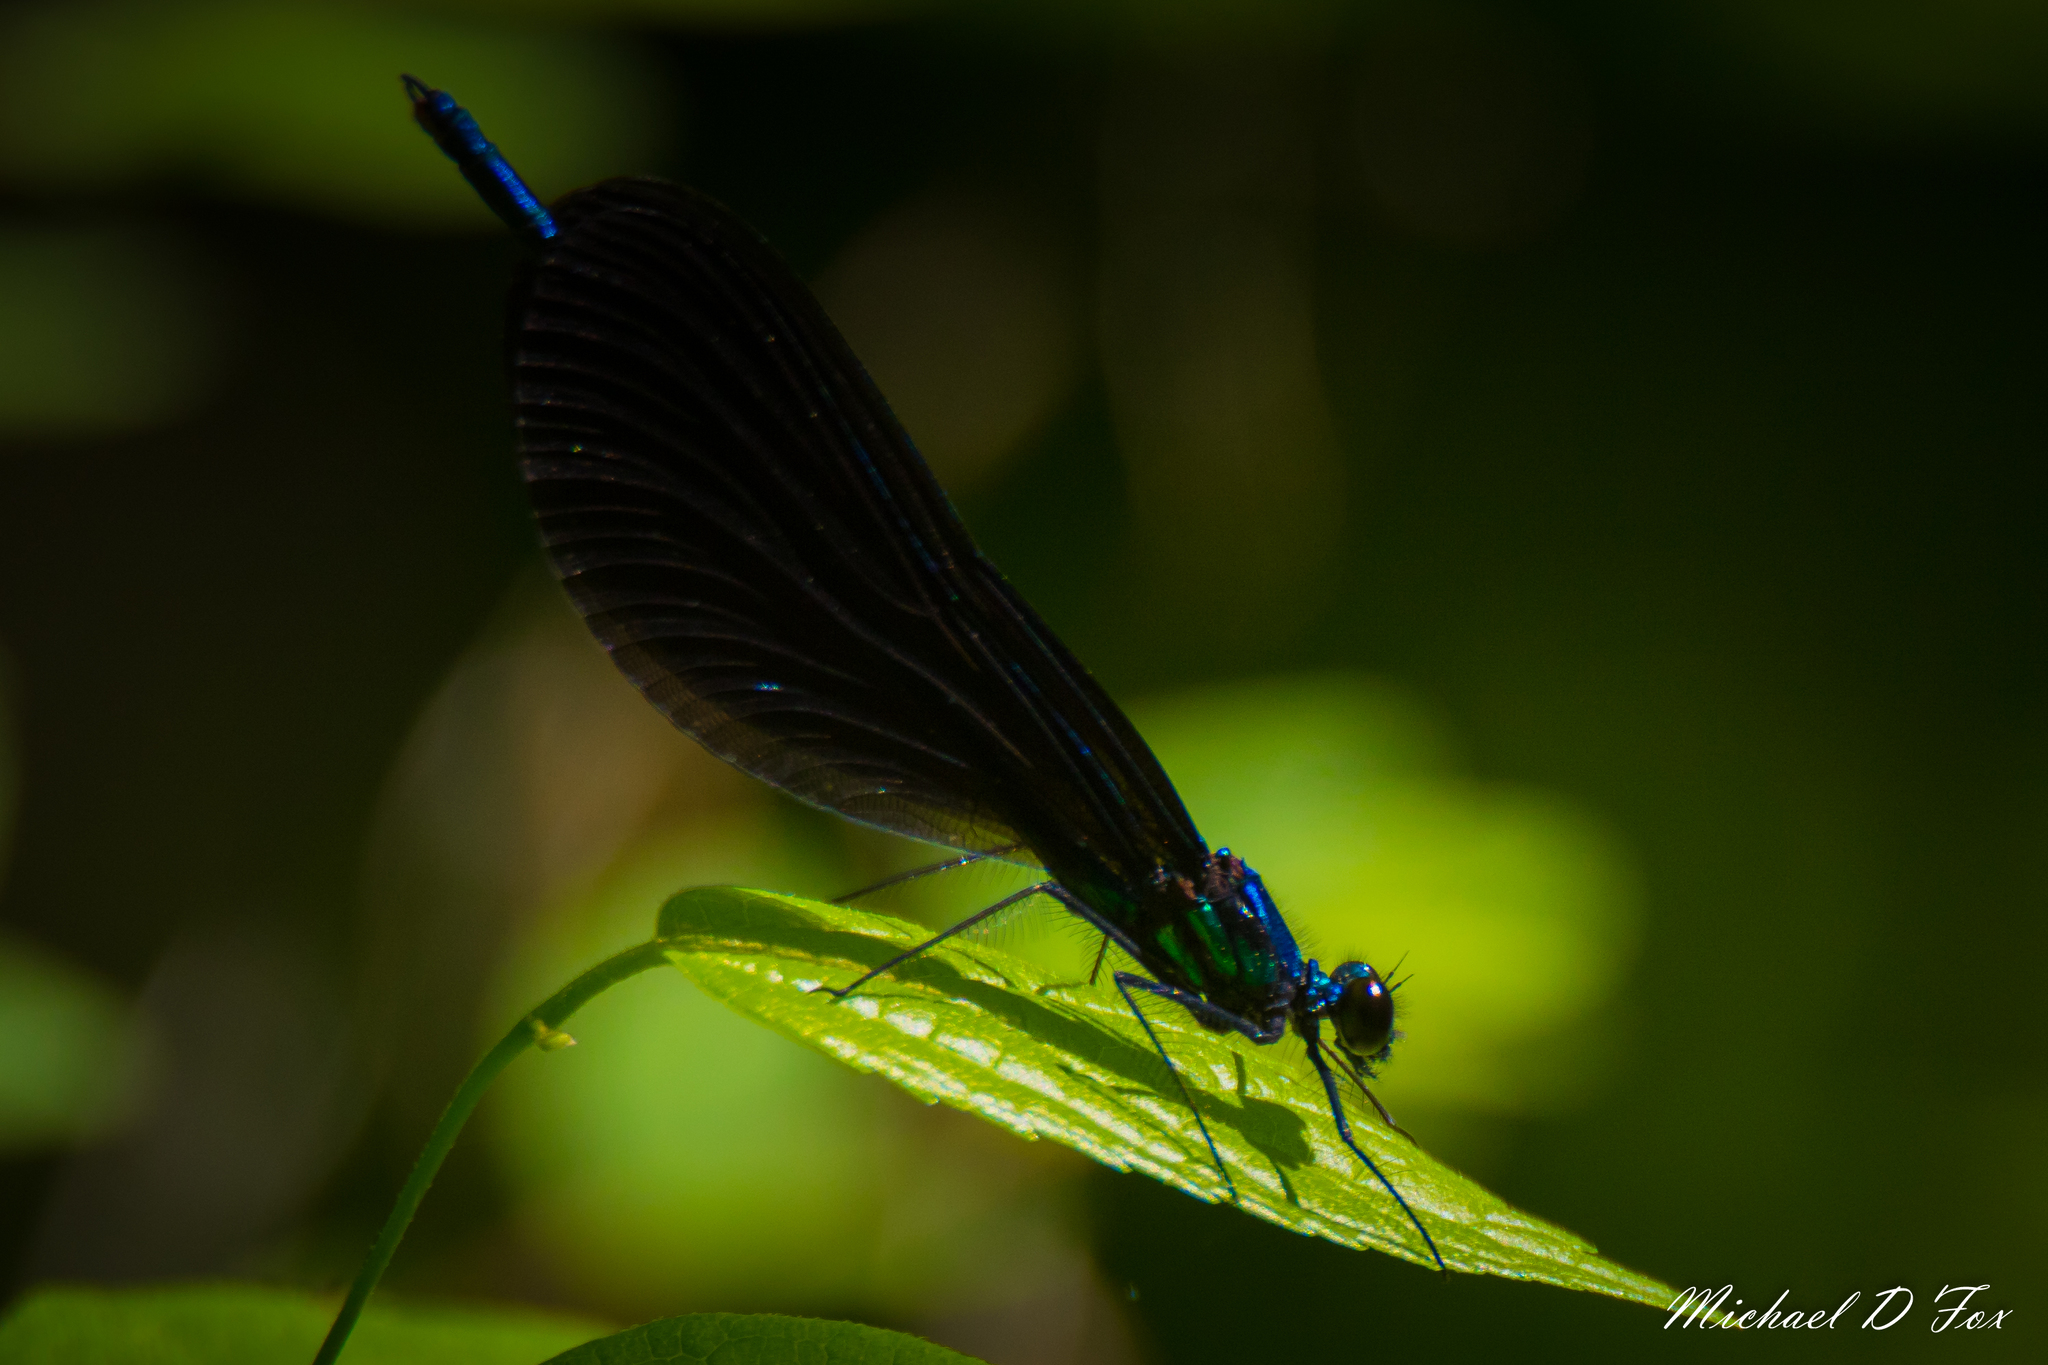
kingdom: Animalia
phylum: Arthropoda
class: Insecta
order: Odonata
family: Calopterygidae
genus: Calopteryx
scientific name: Calopteryx maculata
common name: Ebony jewelwing
